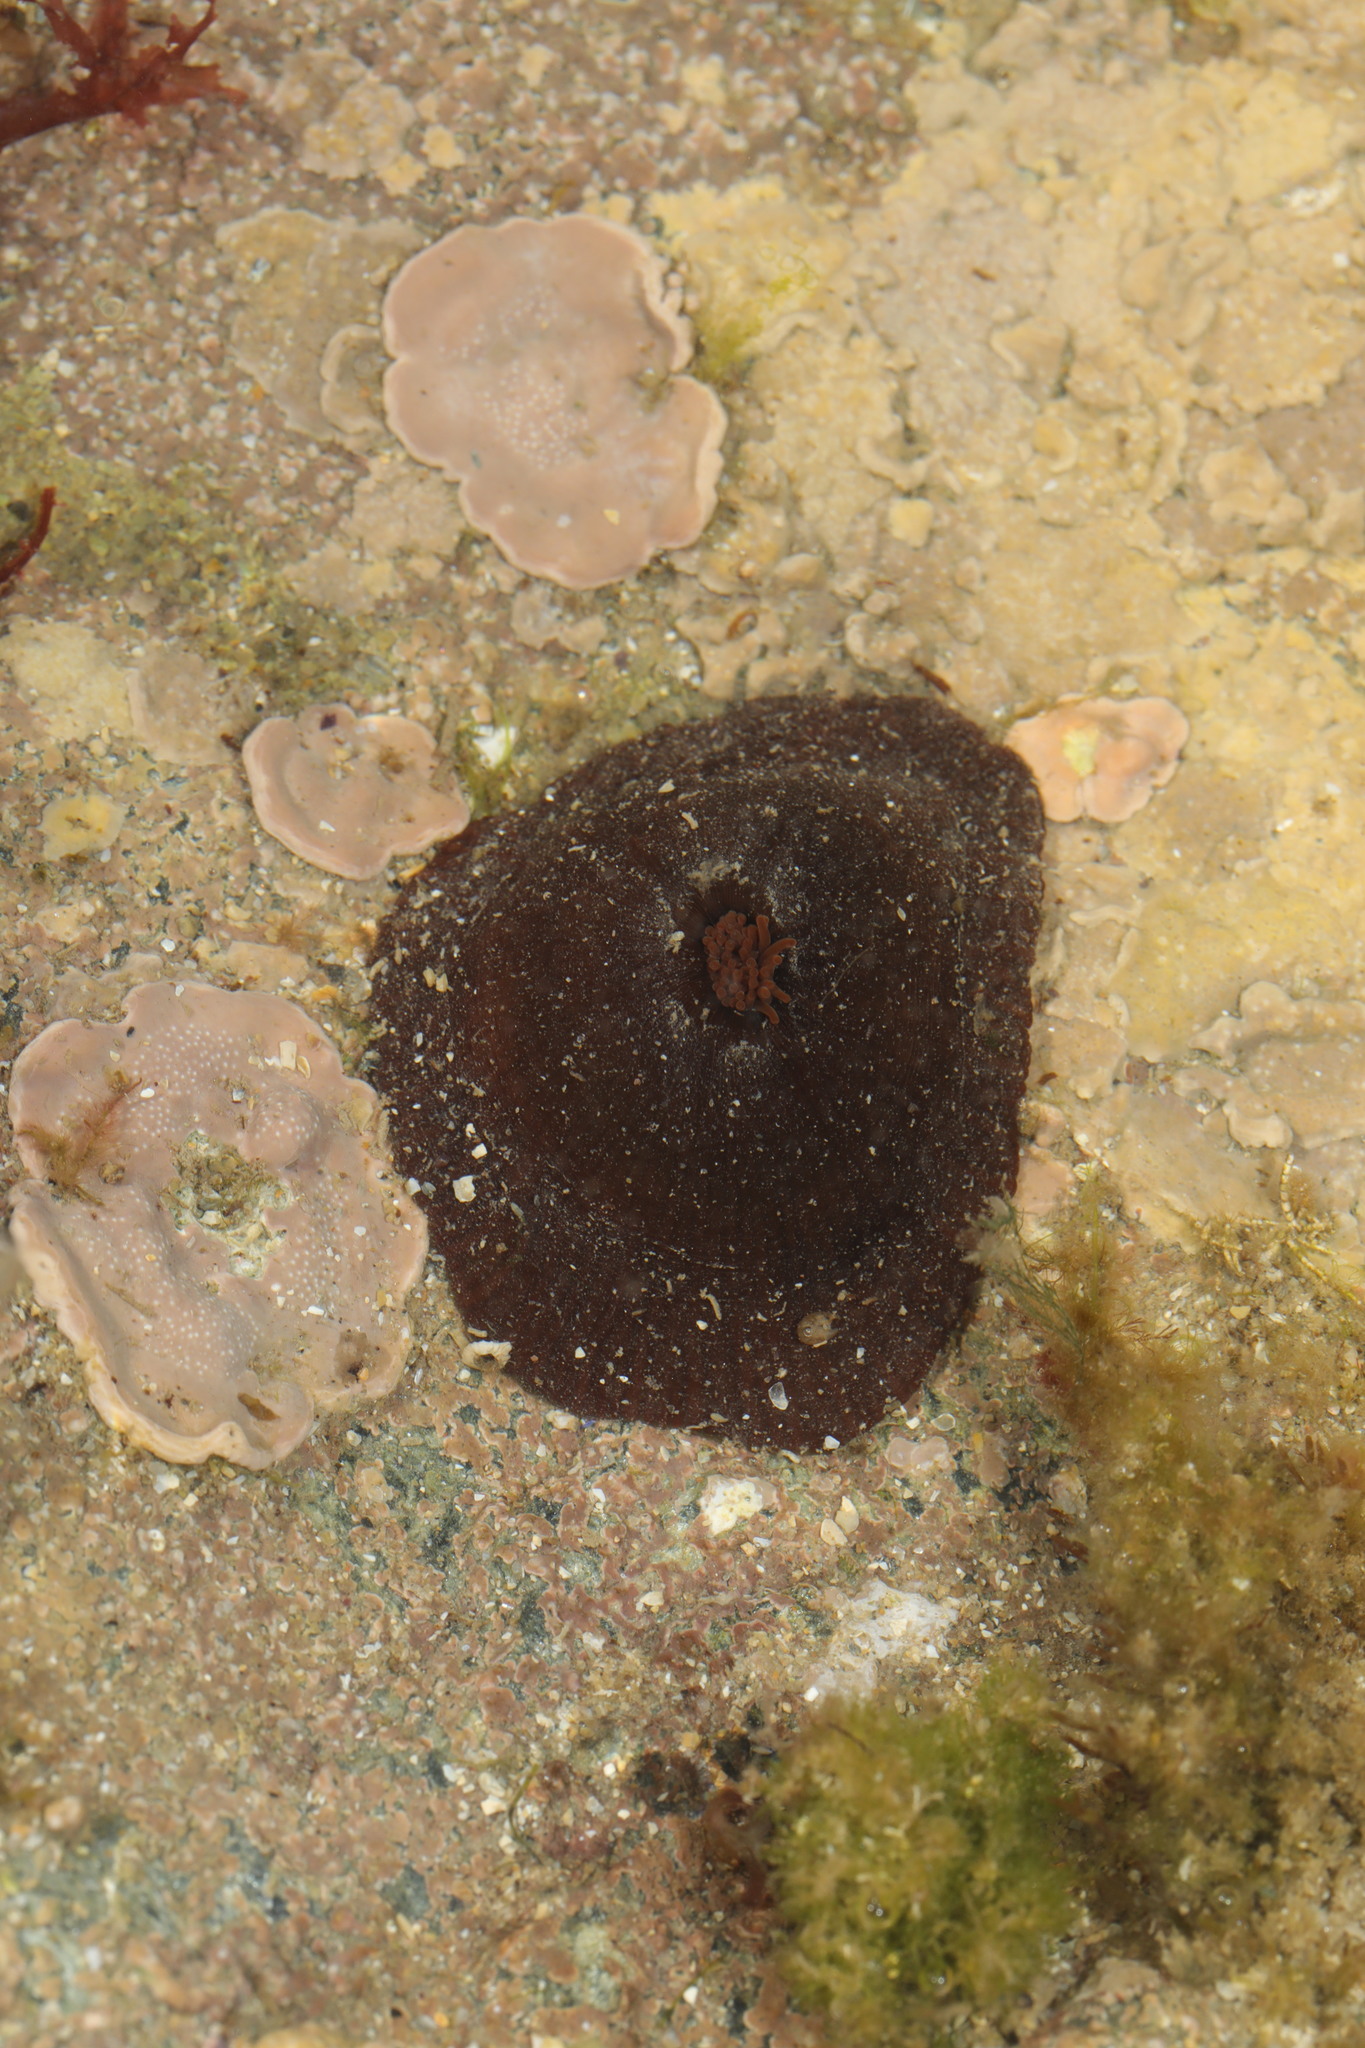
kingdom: Animalia
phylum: Cnidaria
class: Anthozoa
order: Actiniaria
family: Actiniidae
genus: Actinia
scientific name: Actinia equina
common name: Beadlet anemone
